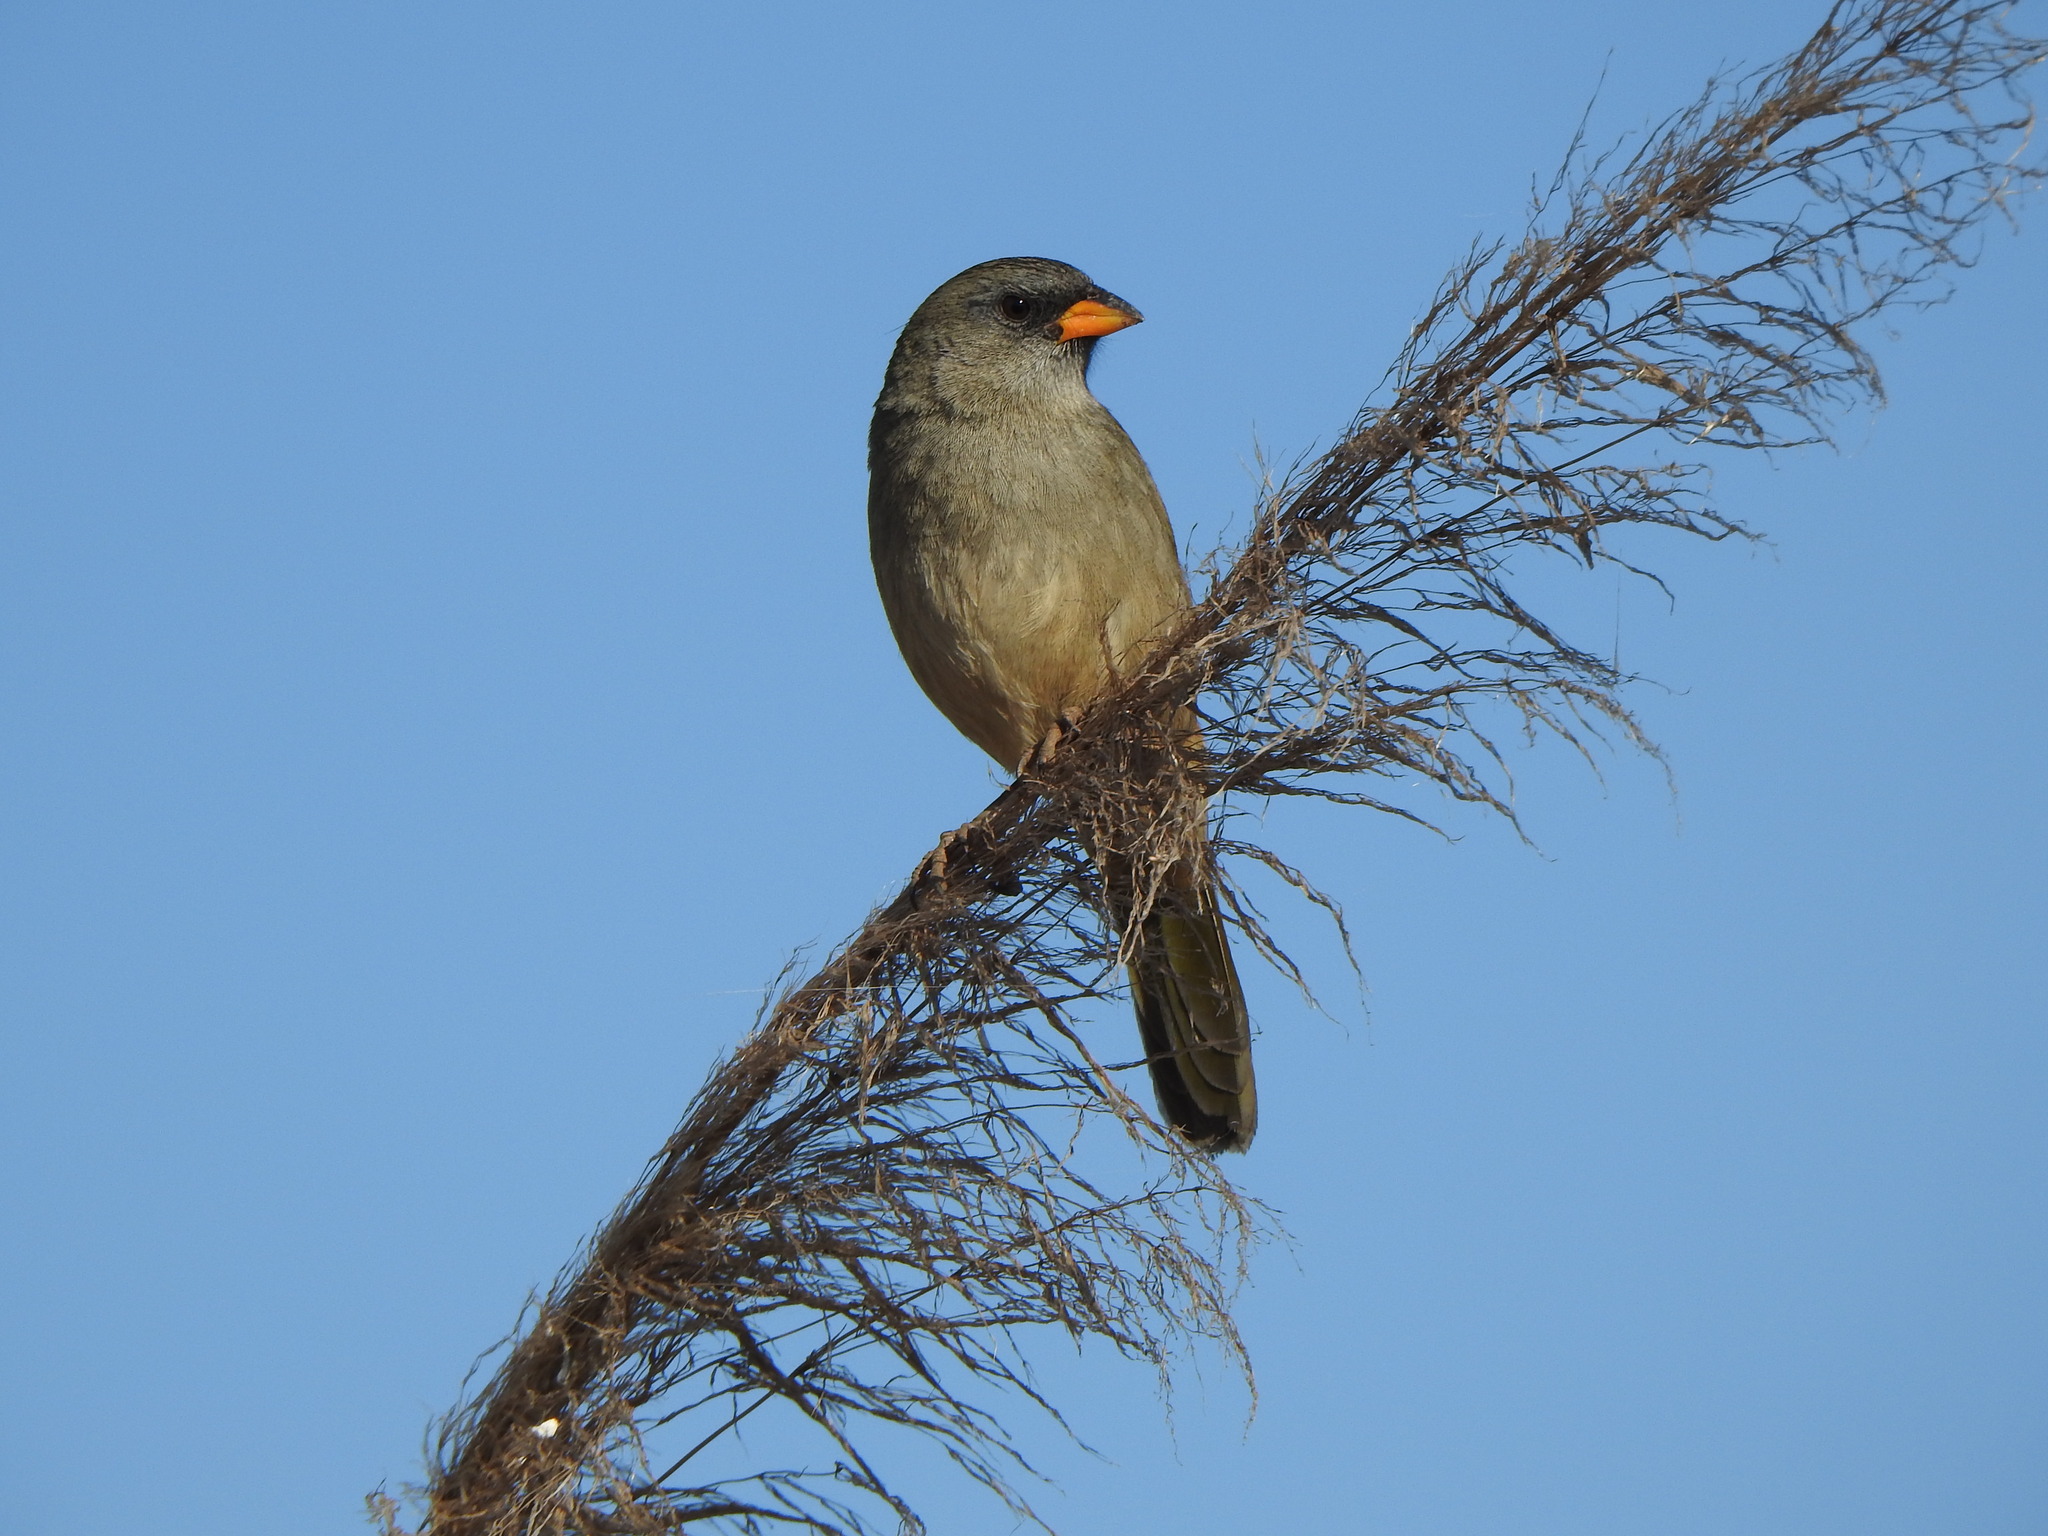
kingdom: Animalia
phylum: Chordata
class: Aves
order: Passeriformes
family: Thraupidae
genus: Embernagra
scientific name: Embernagra platensis
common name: Pampa finch
